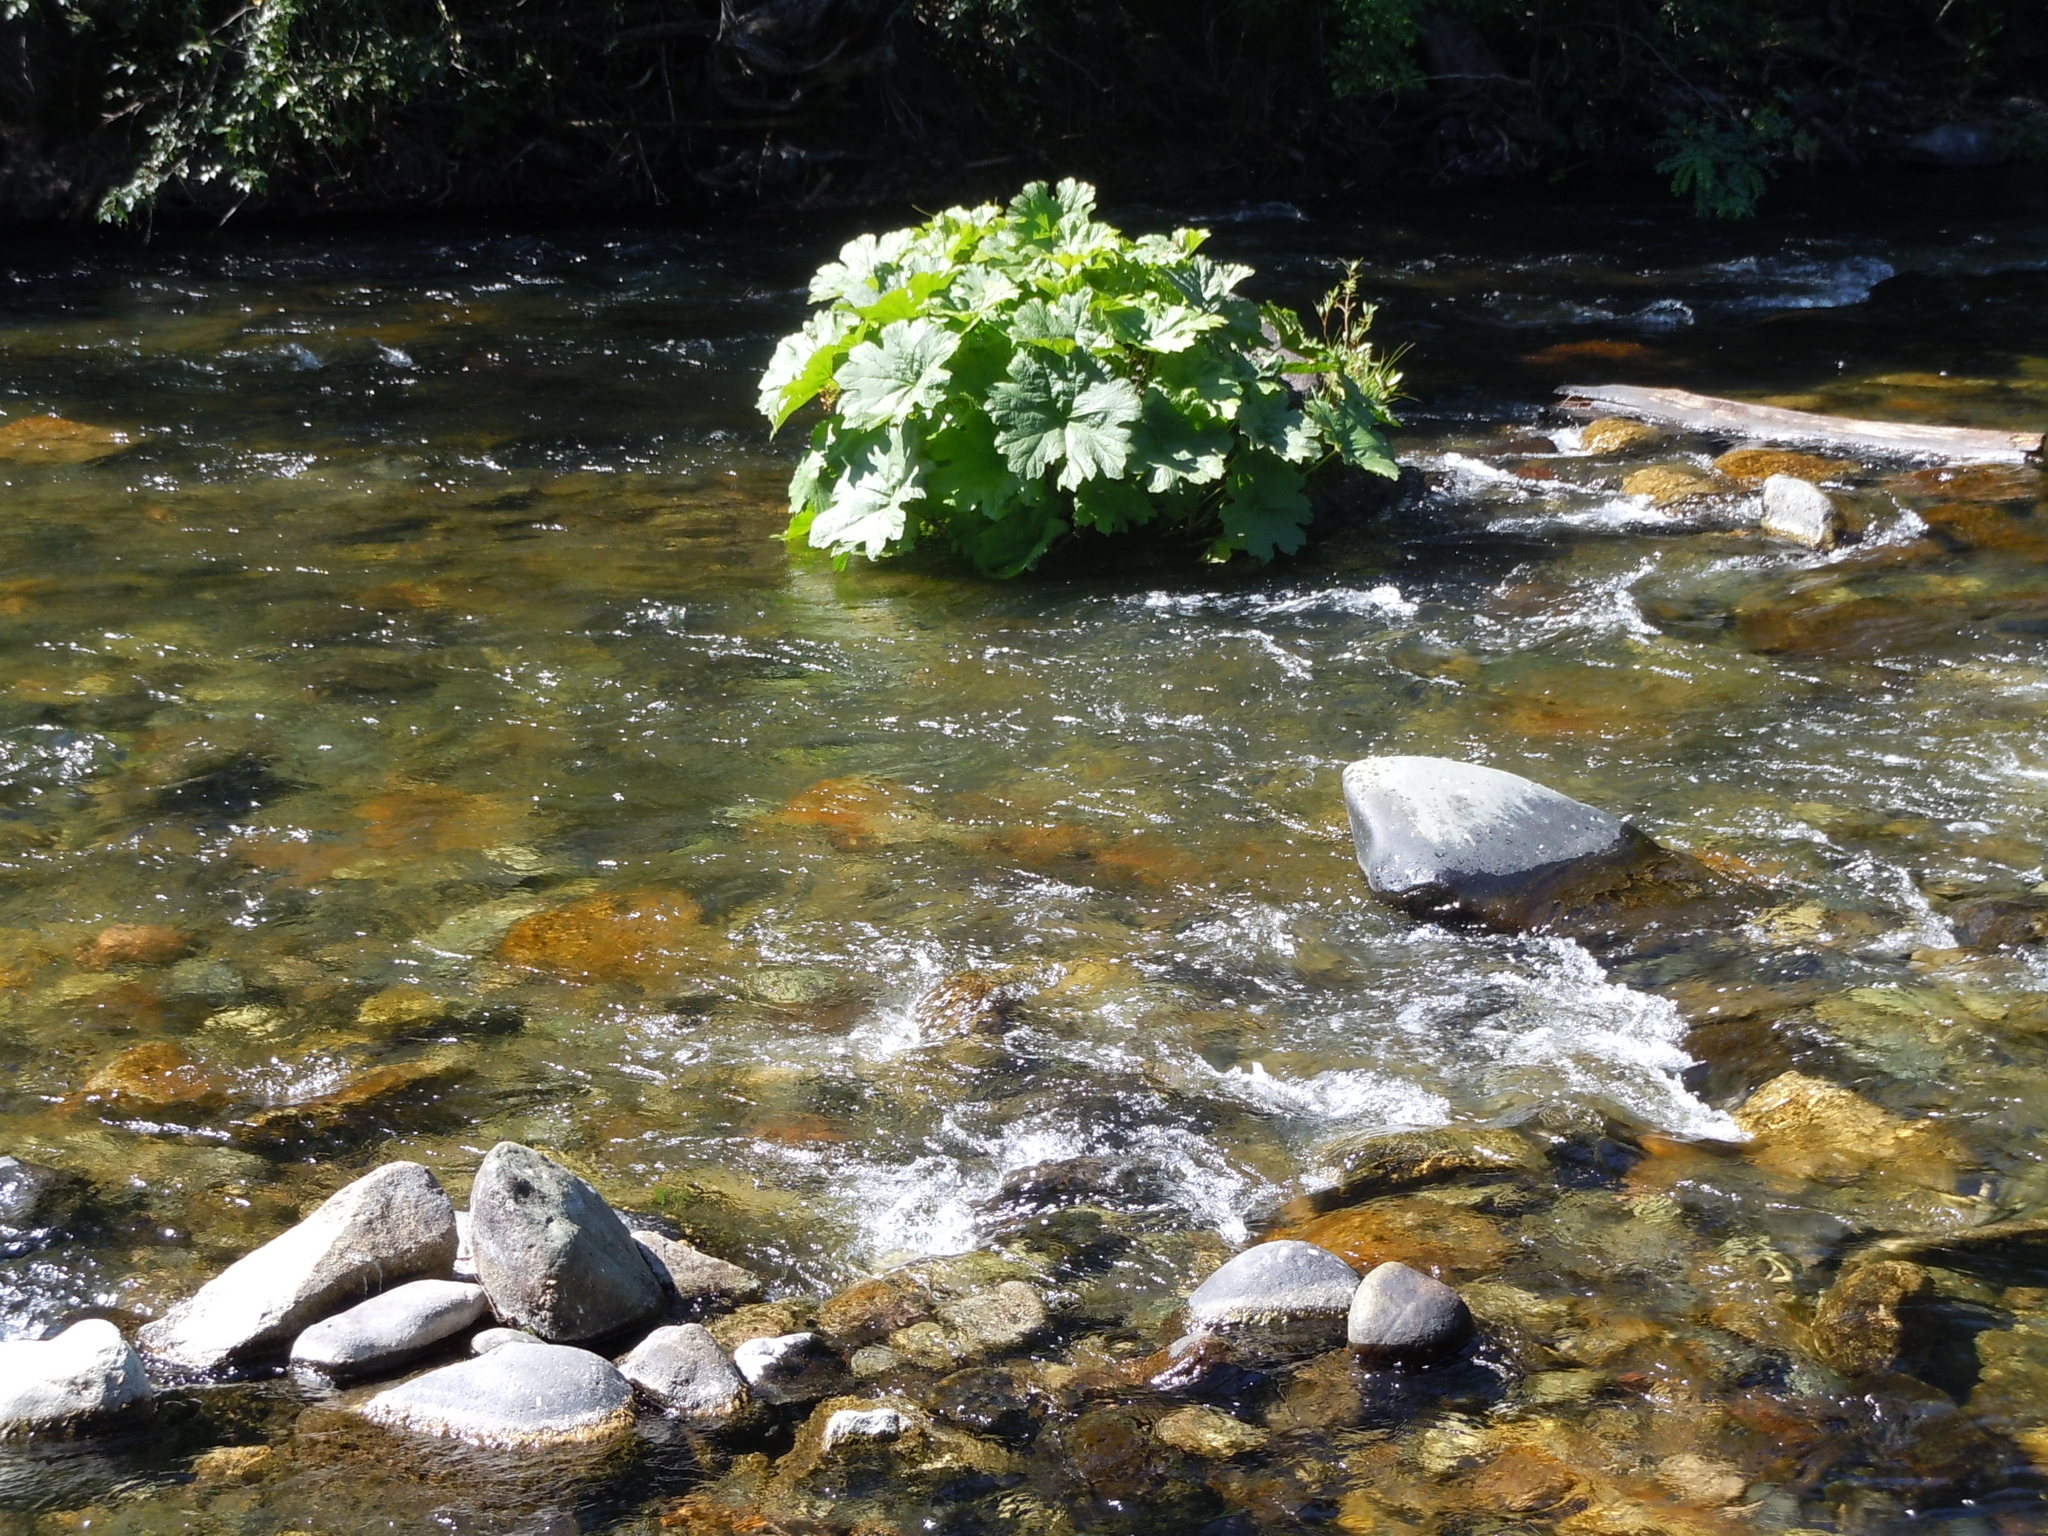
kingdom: Plantae
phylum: Tracheophyta
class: Magnoliopsida
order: Saxifragales
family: Saxifragaceae
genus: Darmera
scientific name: Darmera peltata
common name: Indian-rhubarb
